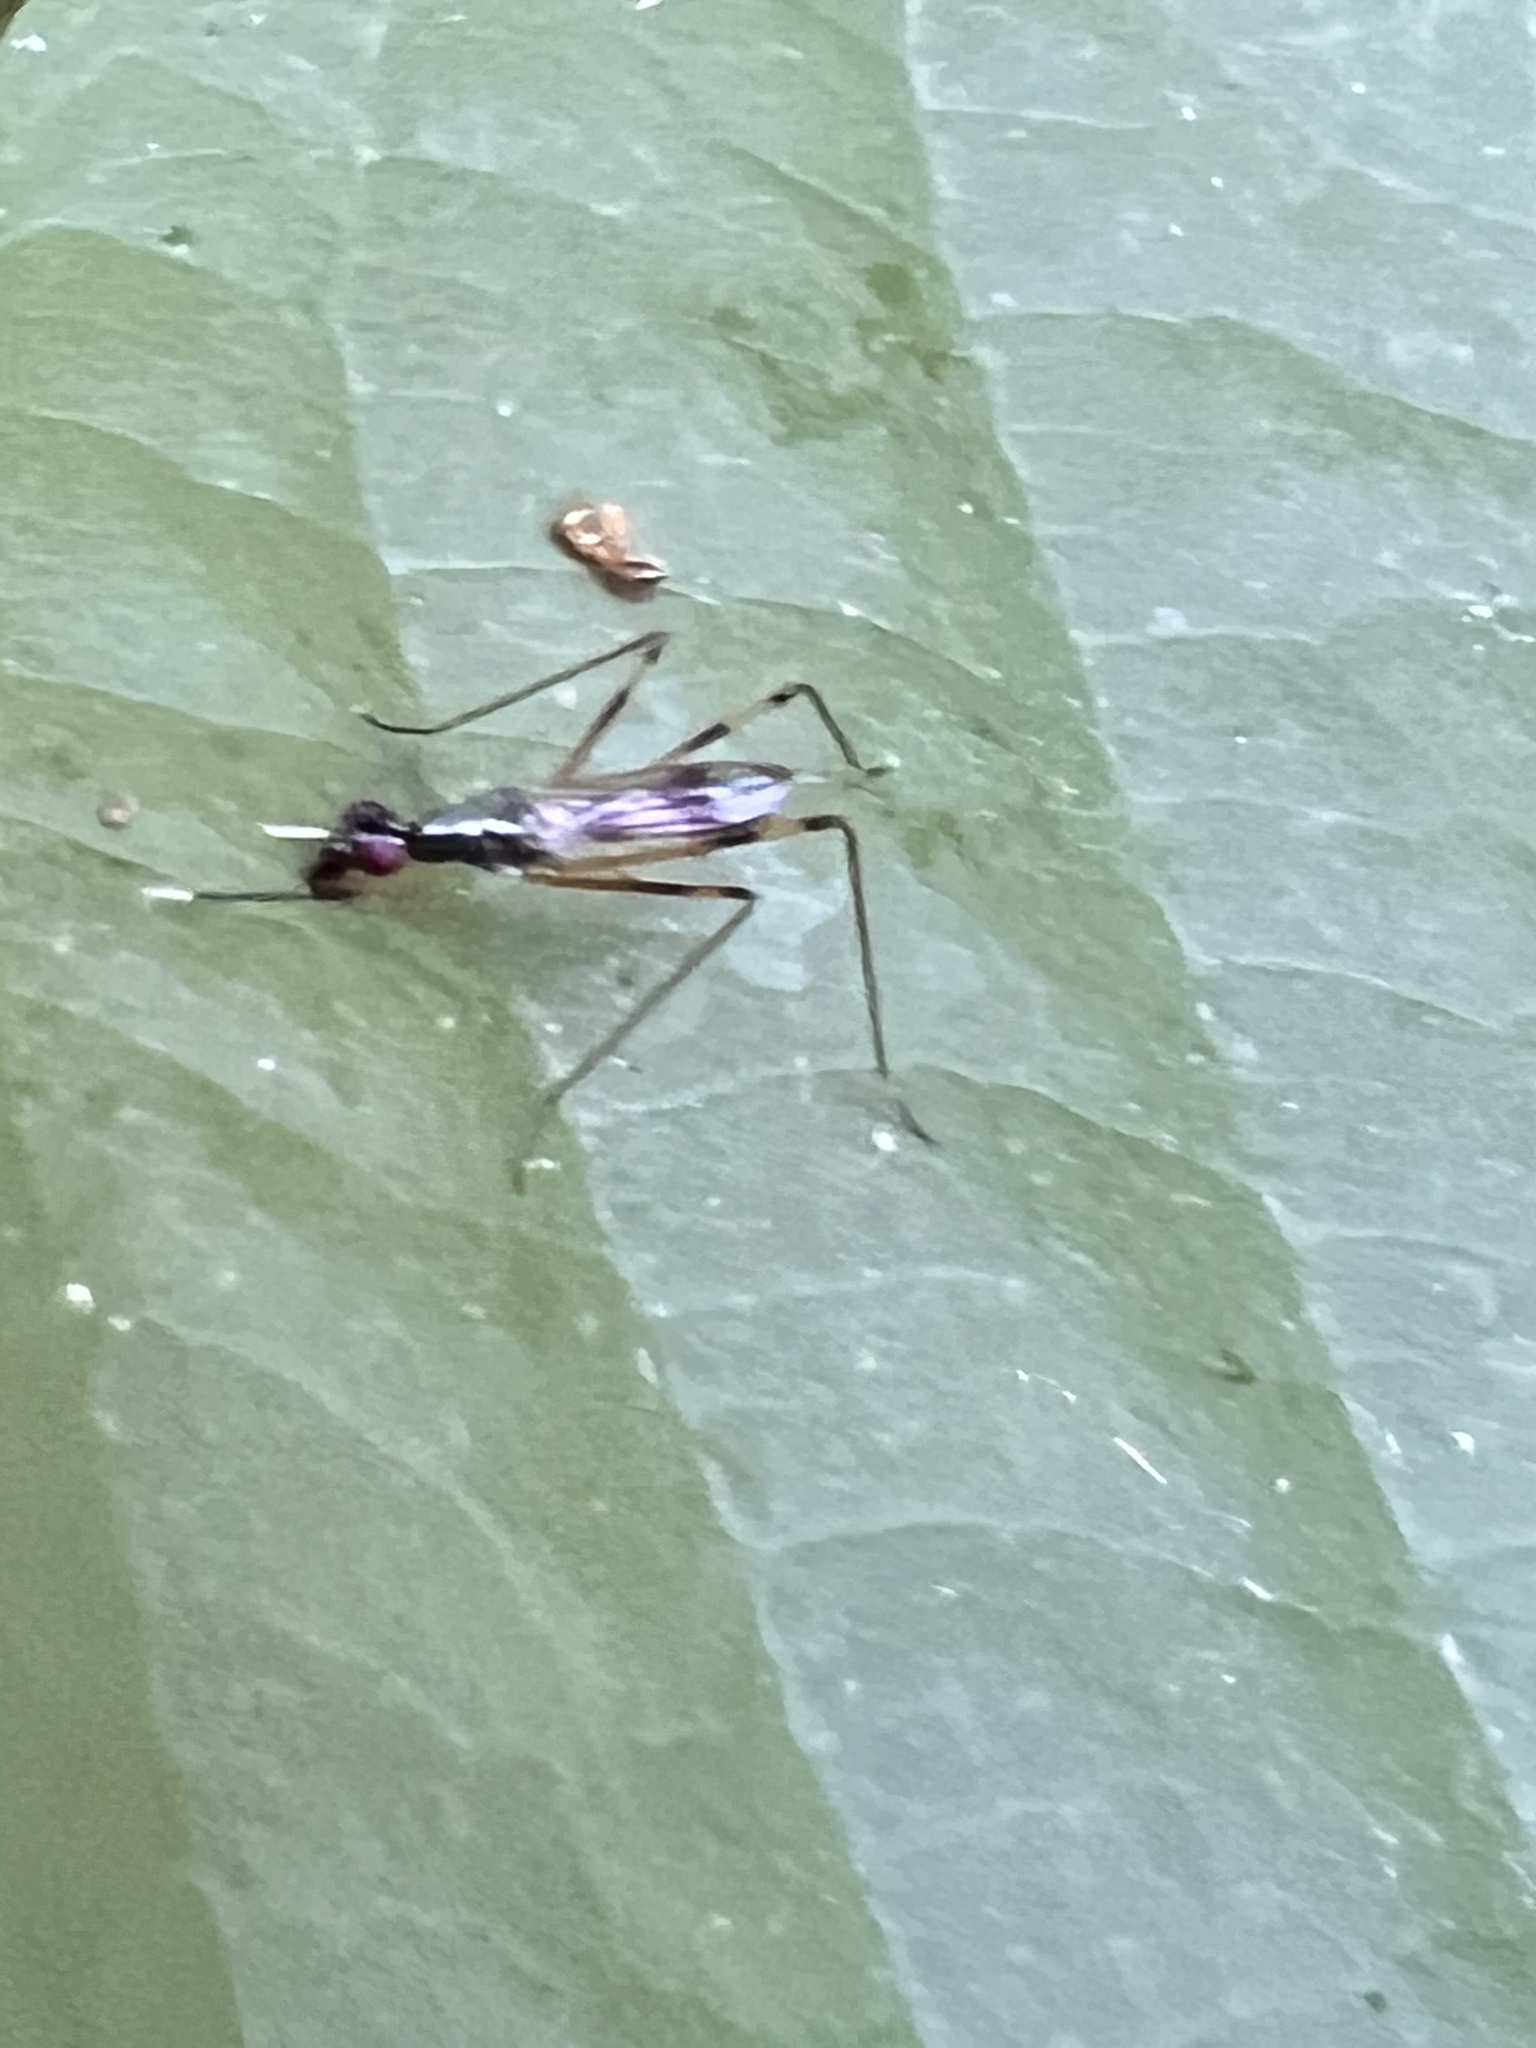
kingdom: Animalia
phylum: Arthropoda
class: Insecta
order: Diptera
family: Micropezidae
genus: Rainieria
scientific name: Rainieria antennaepes
